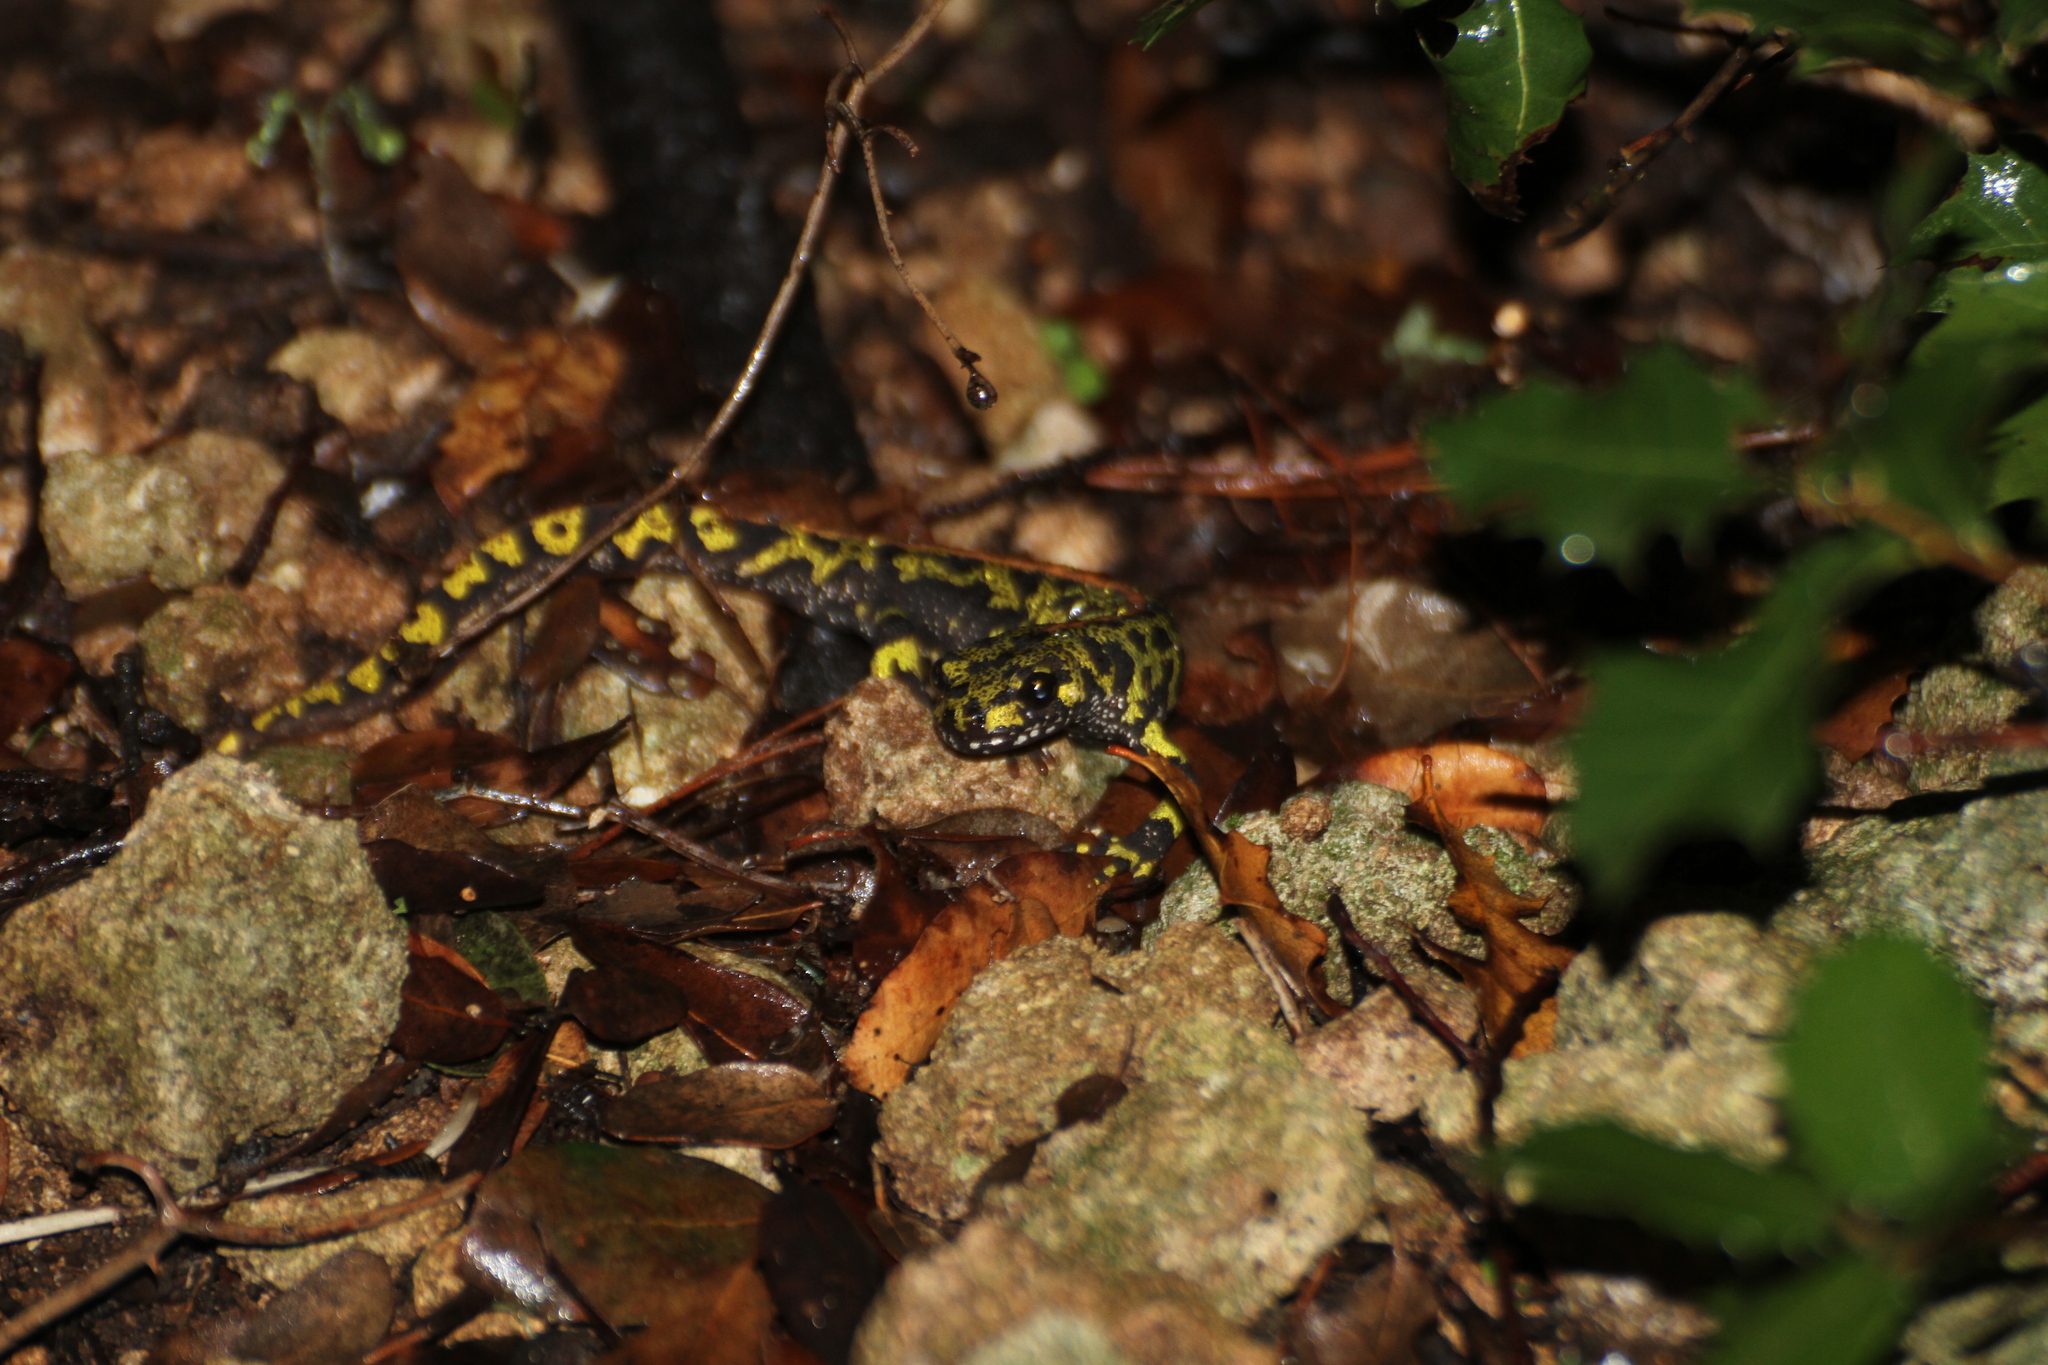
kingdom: Animalia
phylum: Chordata
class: Amphibia
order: Caudata
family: Salamandridae
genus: Triturus
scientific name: Triturus marmoratus
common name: Marbled newt
